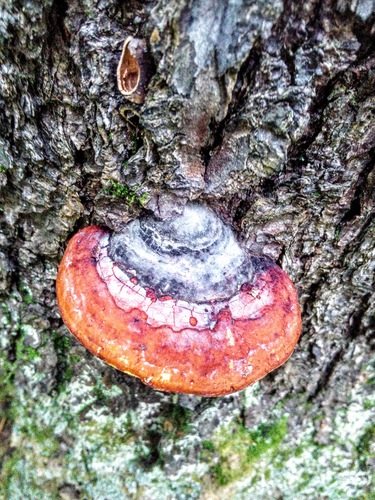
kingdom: Fungi
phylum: Basidiomycota
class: Agaricomycetes
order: Polyporales
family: Fomitopsidaceae
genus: Fomitopsis
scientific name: Fomitopsis pinicola
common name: Red-belted bracket
